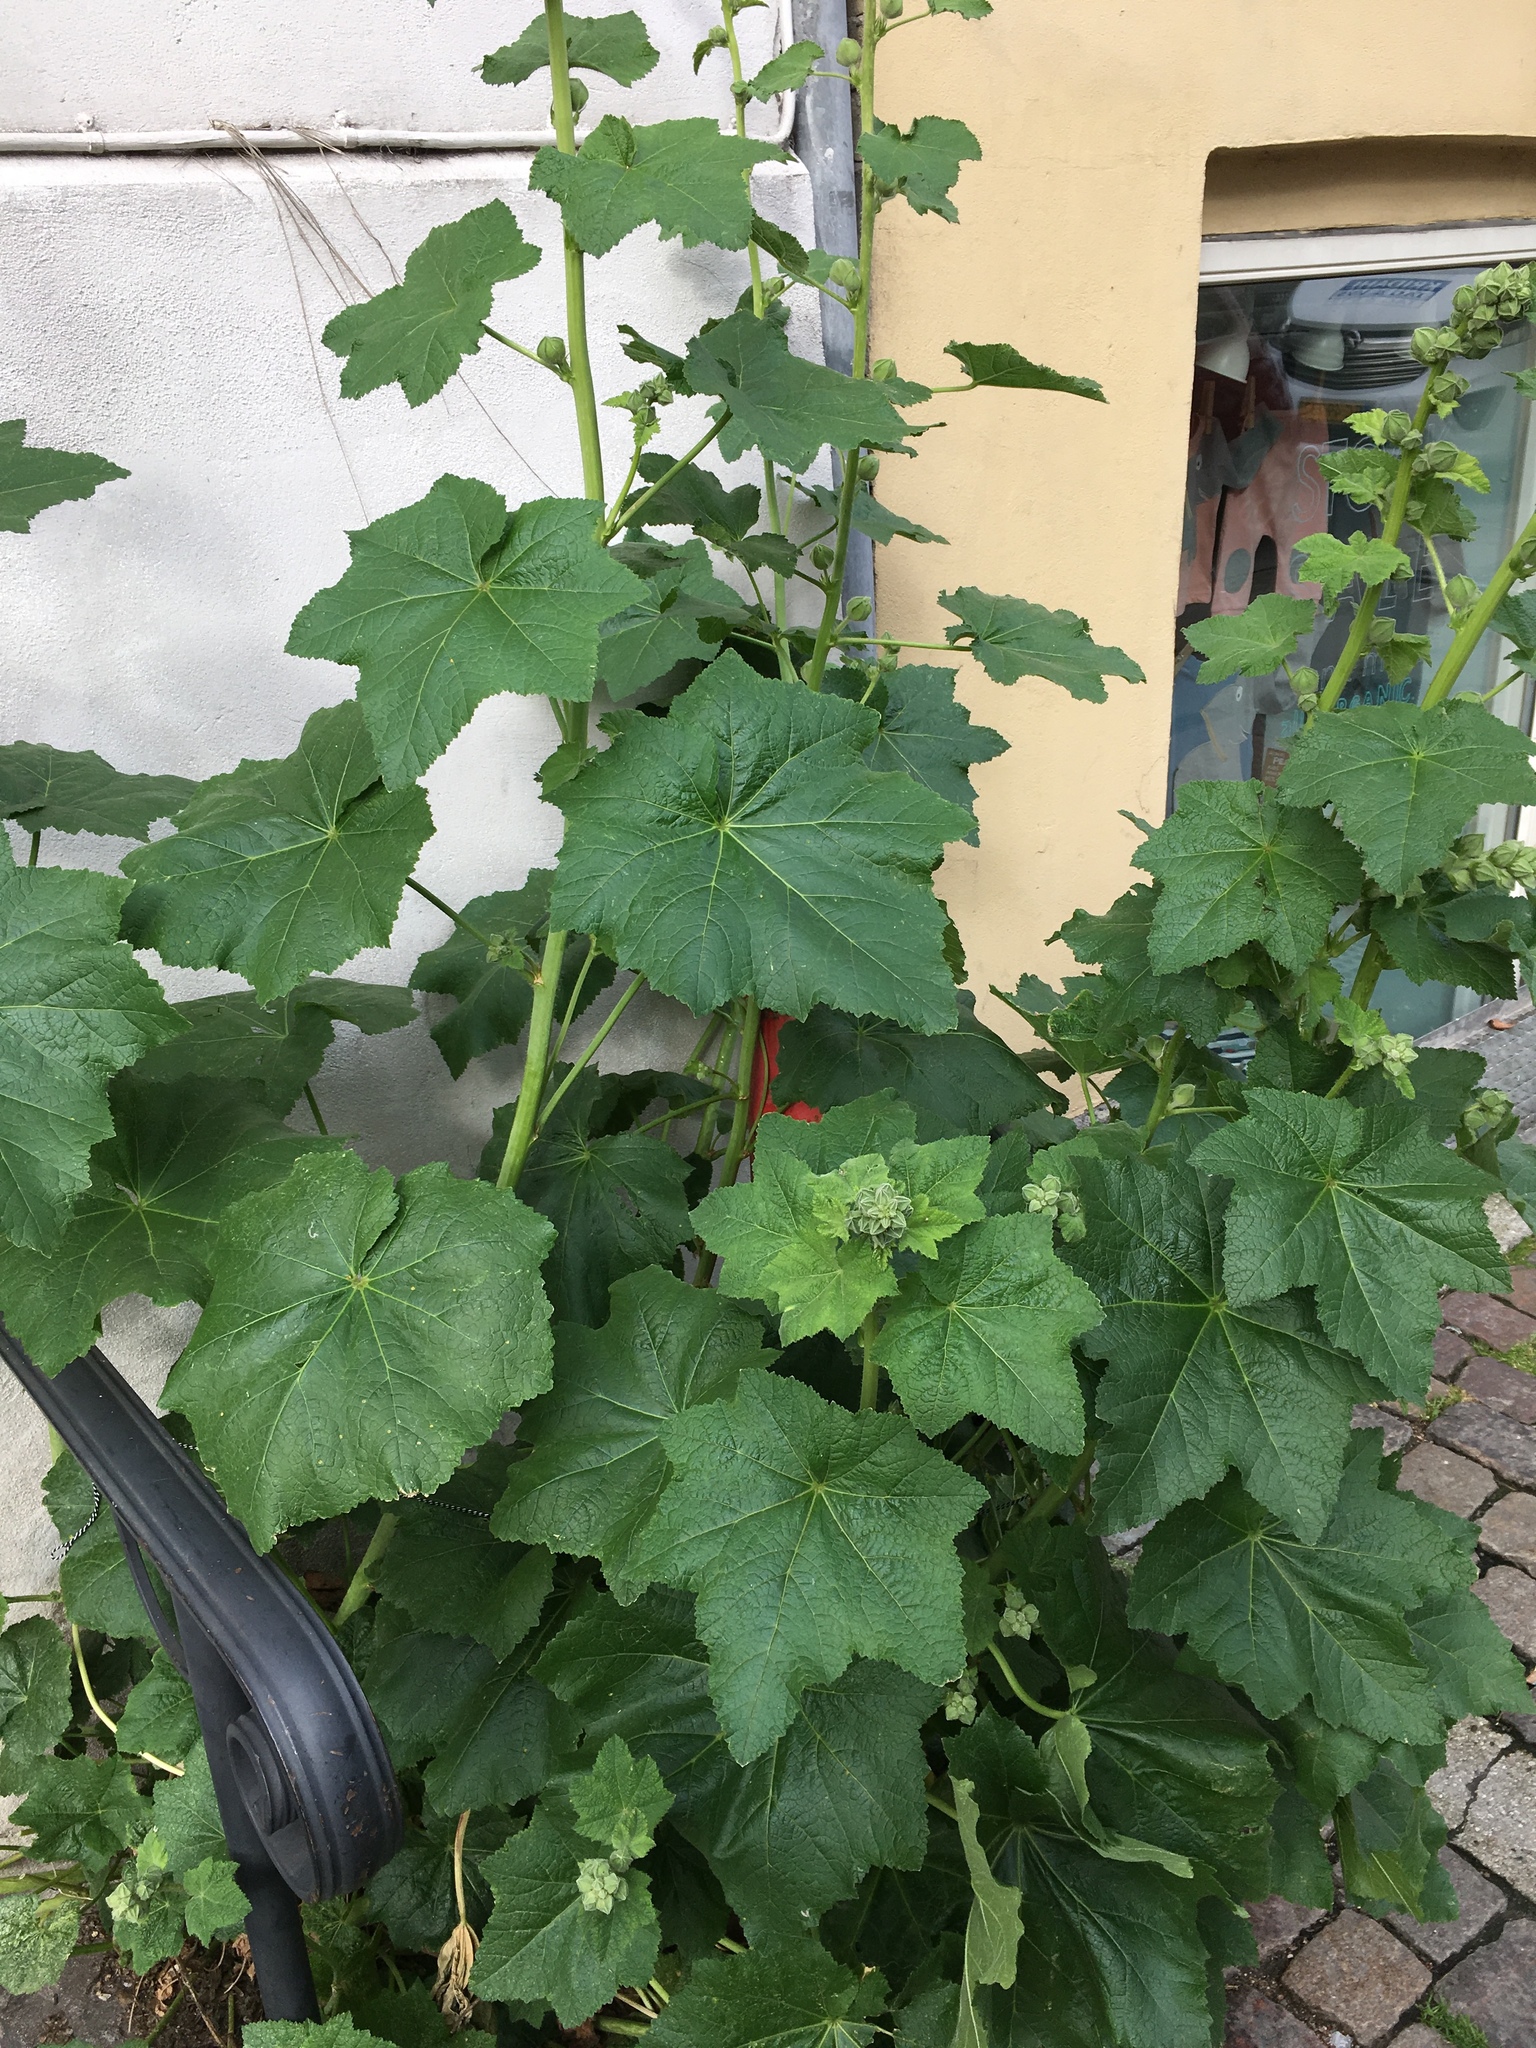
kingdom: Plantae
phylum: Tracheophyta
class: Magnoliopsida
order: Malvales
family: Malvaceae
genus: Alcea
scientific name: Alcea rosea
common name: Hollyhock
